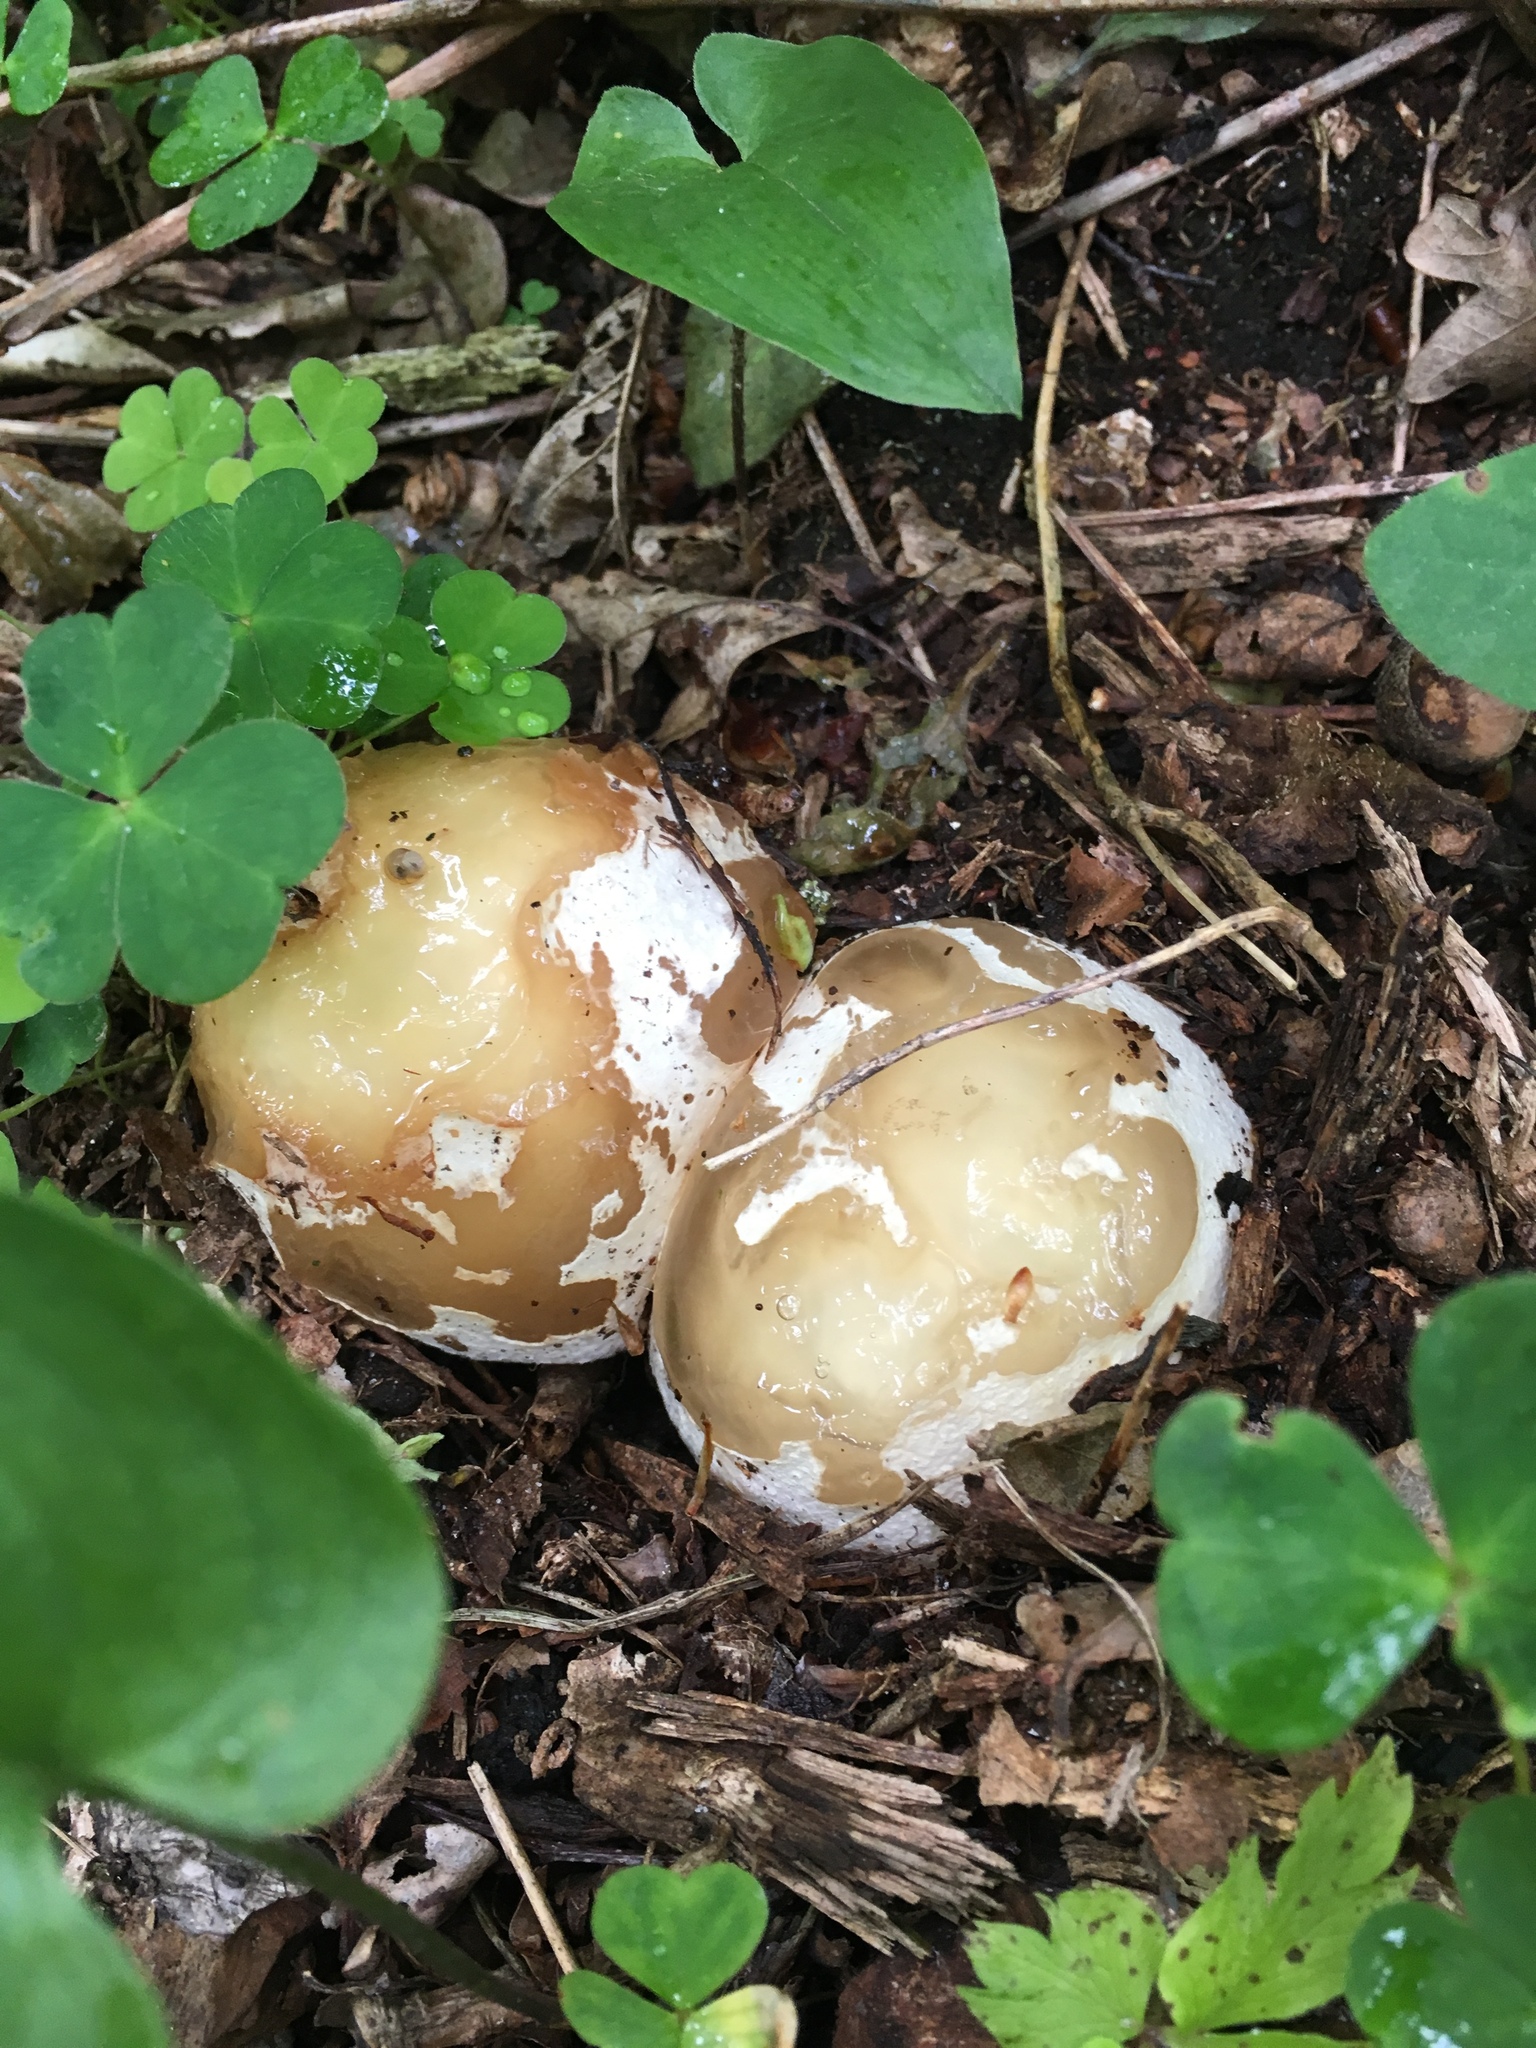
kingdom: Fungi
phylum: Basidiomycota
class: Agaricomycetes
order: Phallales
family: Phallaceae
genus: Phallus
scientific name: Phallus impudicus
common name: Common stinkhorn
